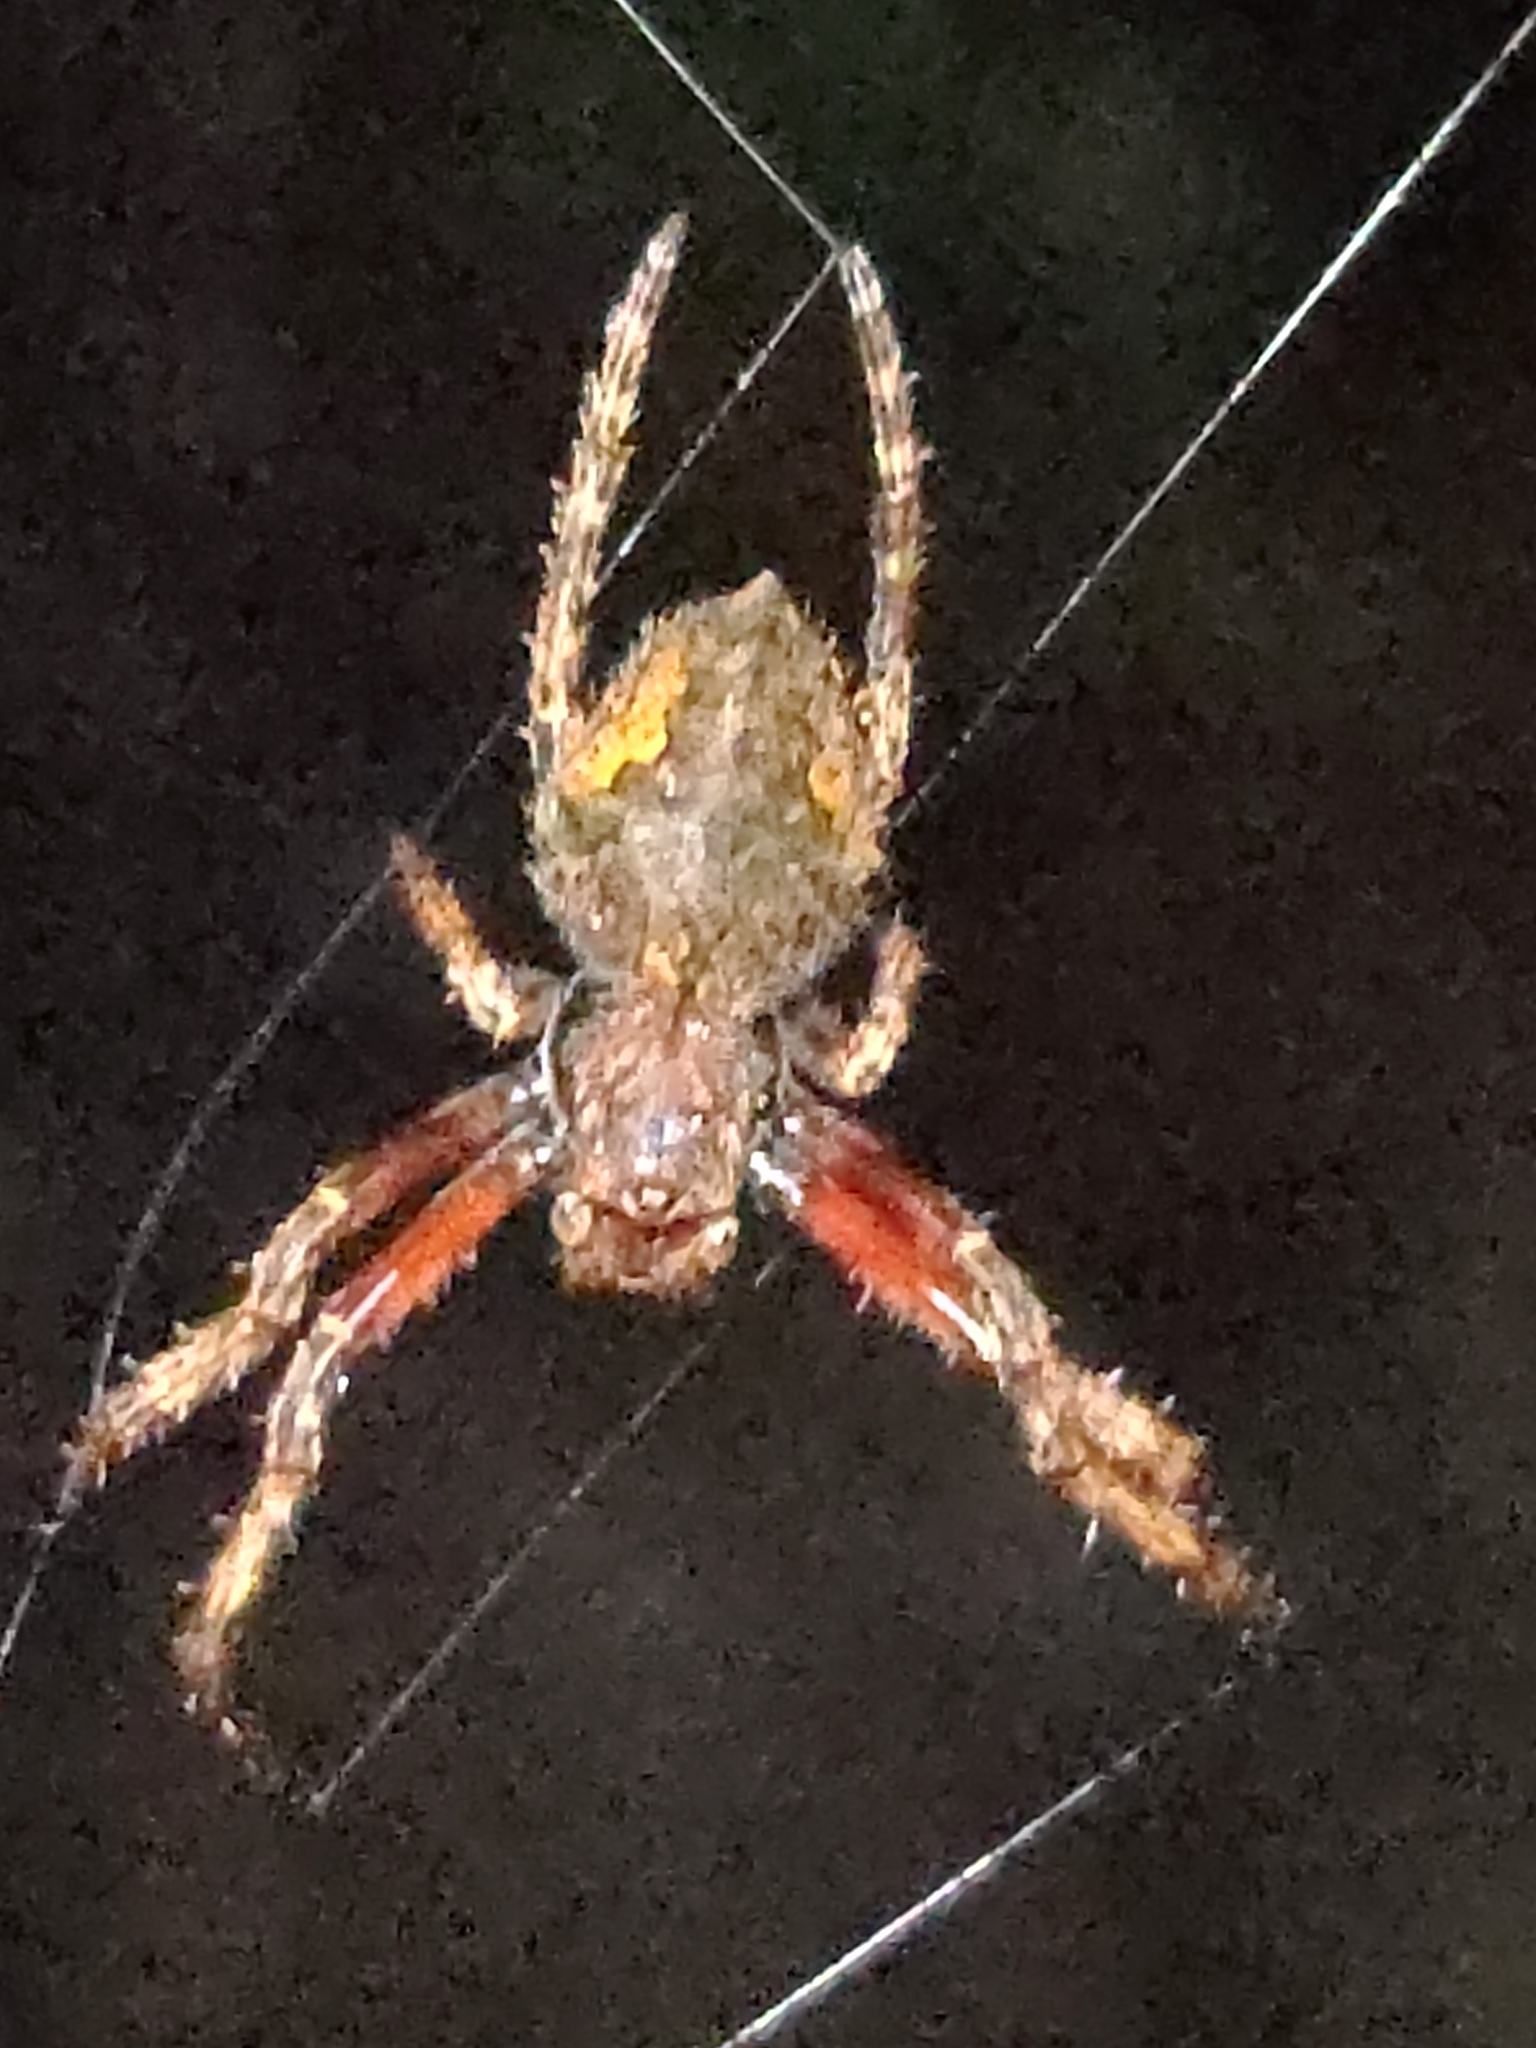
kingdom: Animalia
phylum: Arthropoda
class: Arachnida
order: Araneae
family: Araneidae
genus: Eriophora
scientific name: Eriophora pustulosa
